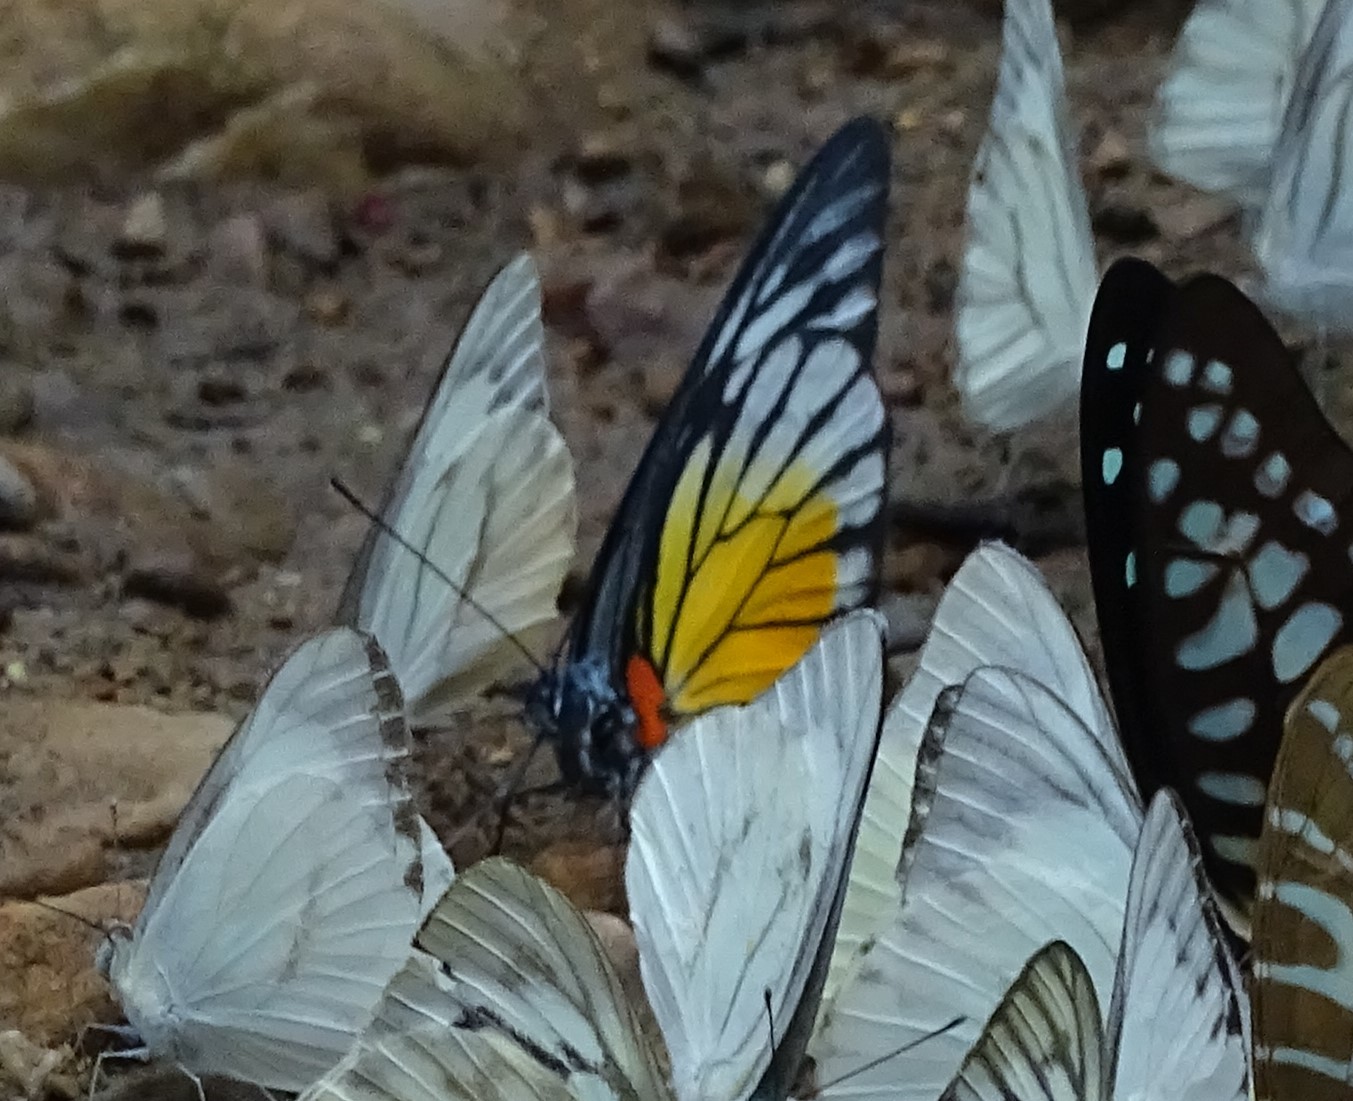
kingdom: Animalia
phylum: Arthropoda
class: Insecta
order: Lepidoptera
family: Pieridae
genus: Prioneris
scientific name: Prioneris philonome
